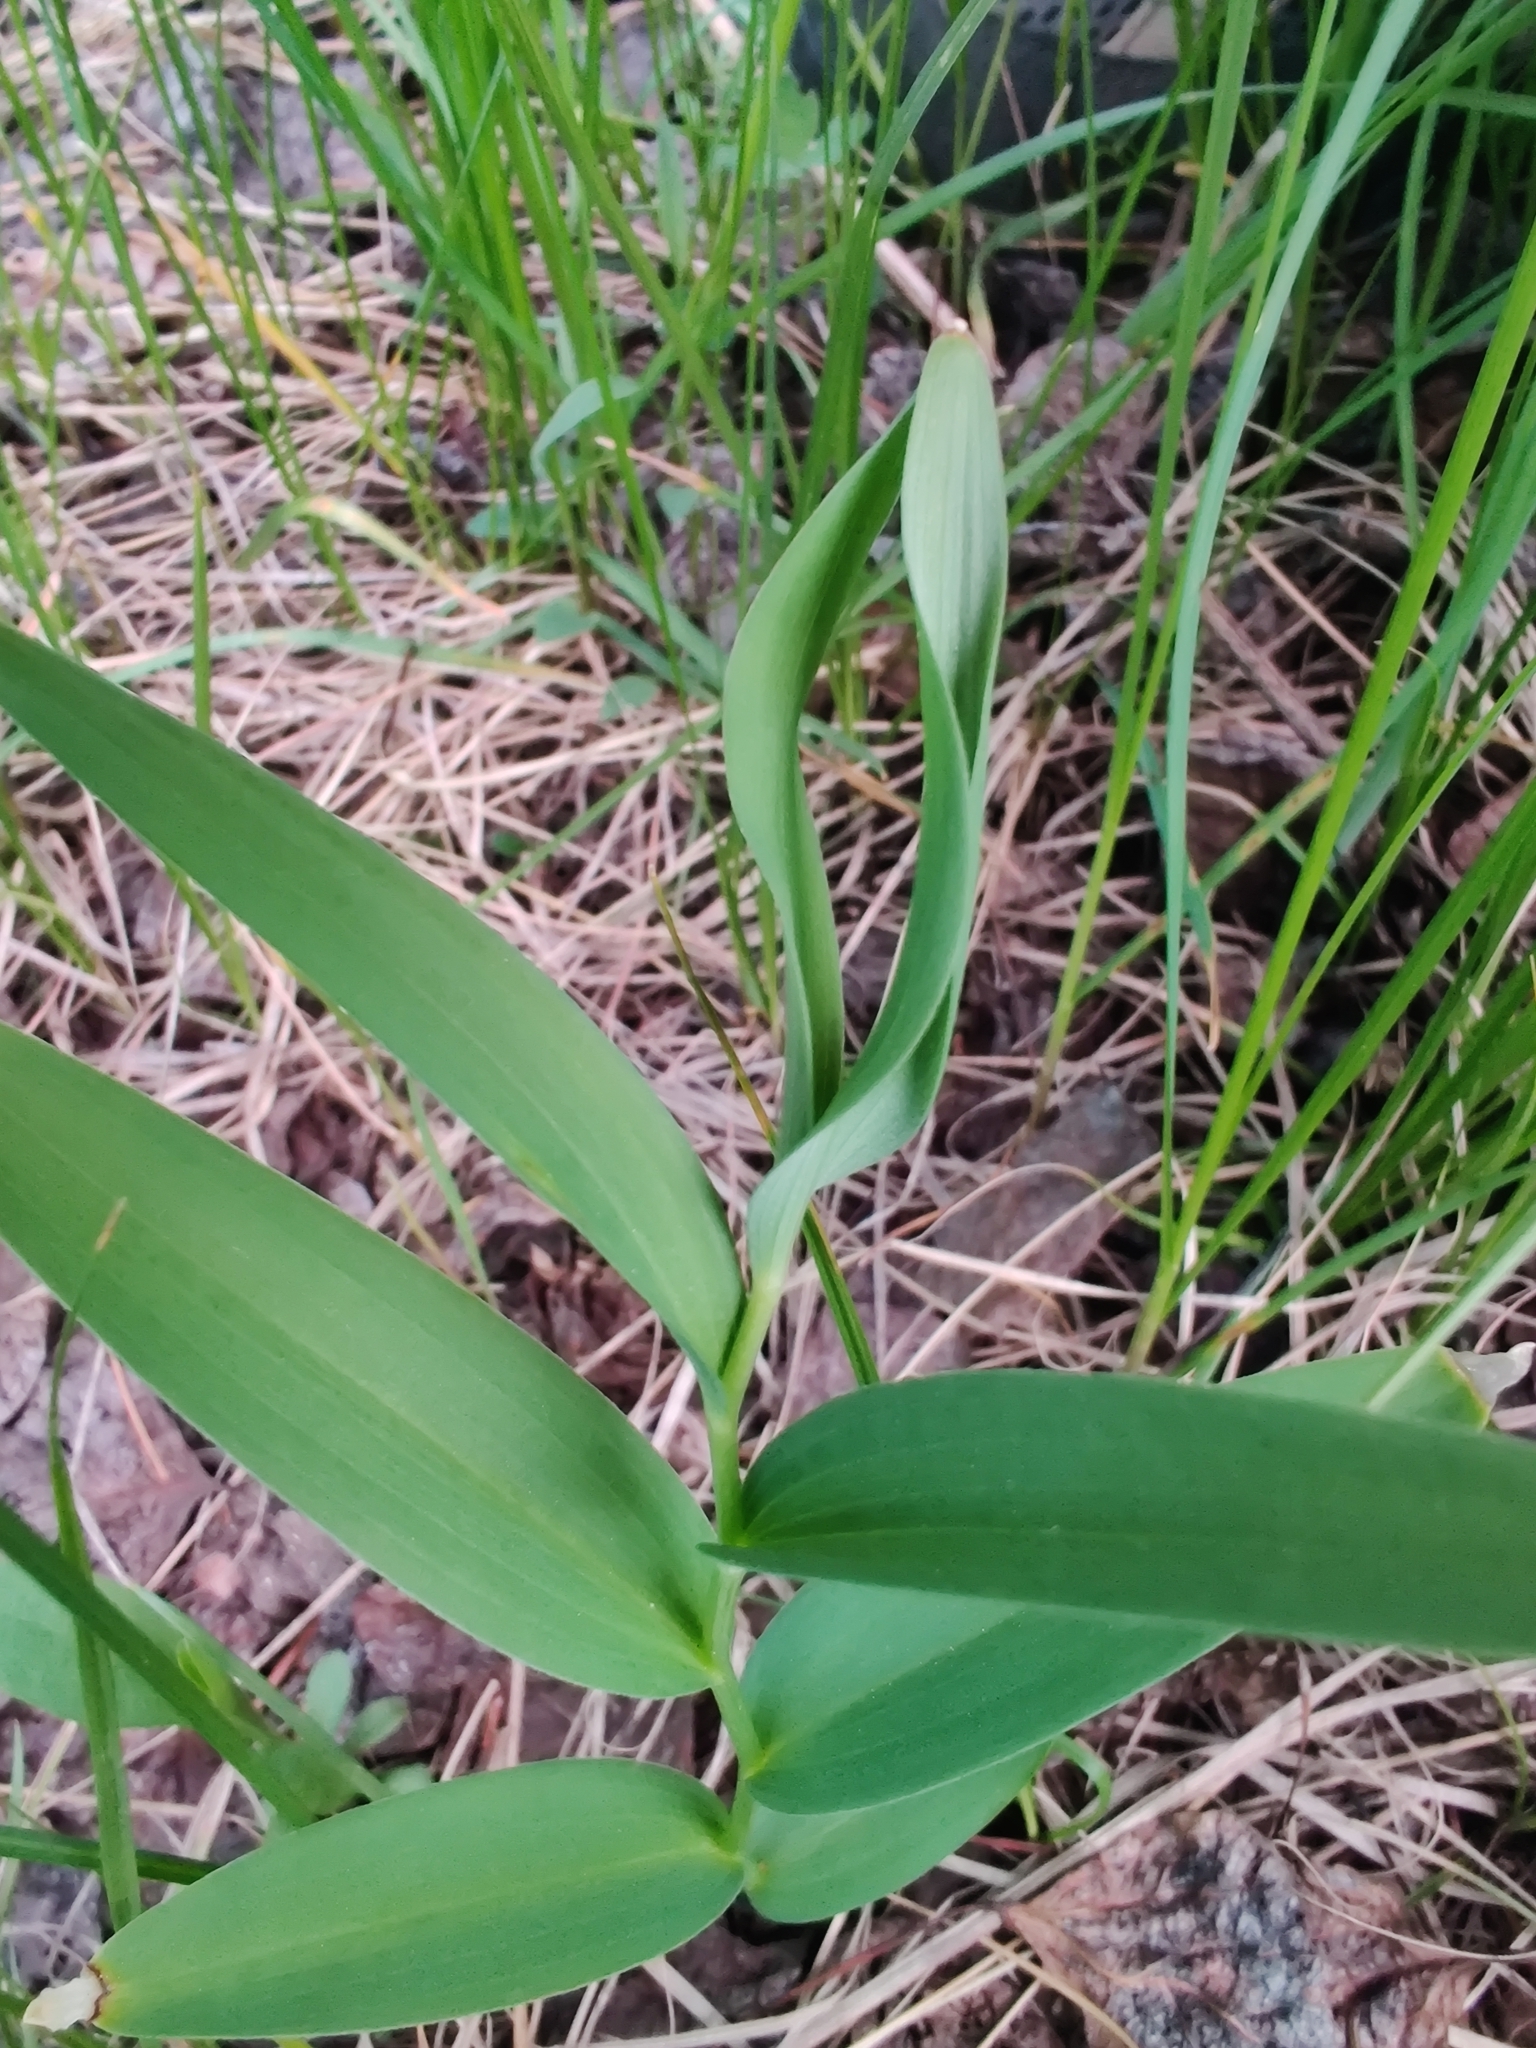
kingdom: Plantae
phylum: Tracheophyta
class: Liliopsida
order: Asparagales
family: Asparagaceae
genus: Maianthemum
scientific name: Maianthemum stellatum
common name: Little false solomon's seal
